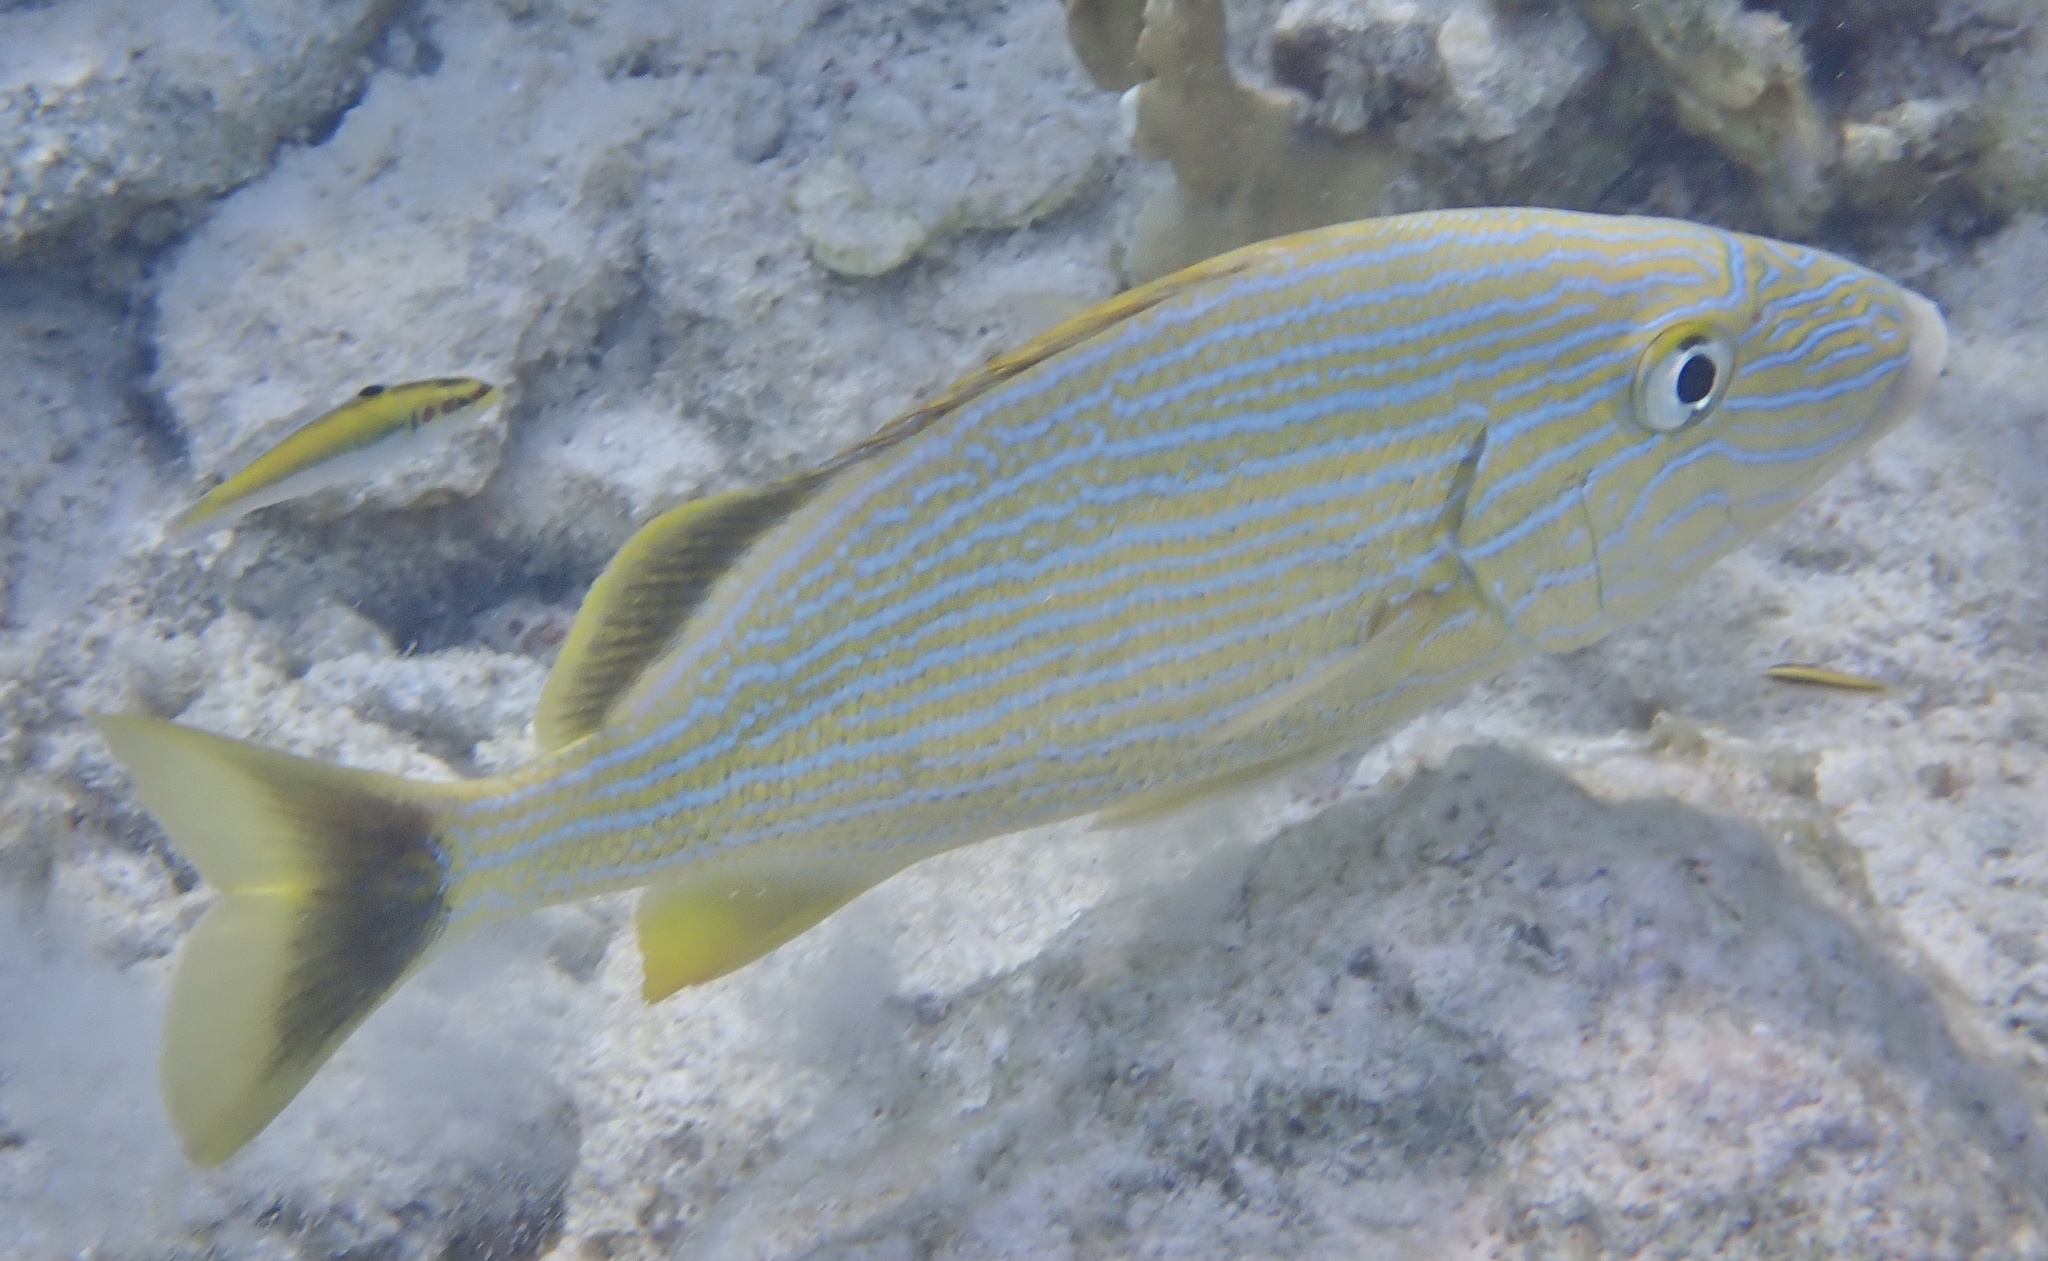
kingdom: Animalia
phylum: Chordata
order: Perciformes
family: Haemulidae
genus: Haemulon
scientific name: Haemulon sciurus
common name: Bluestriped grunt
